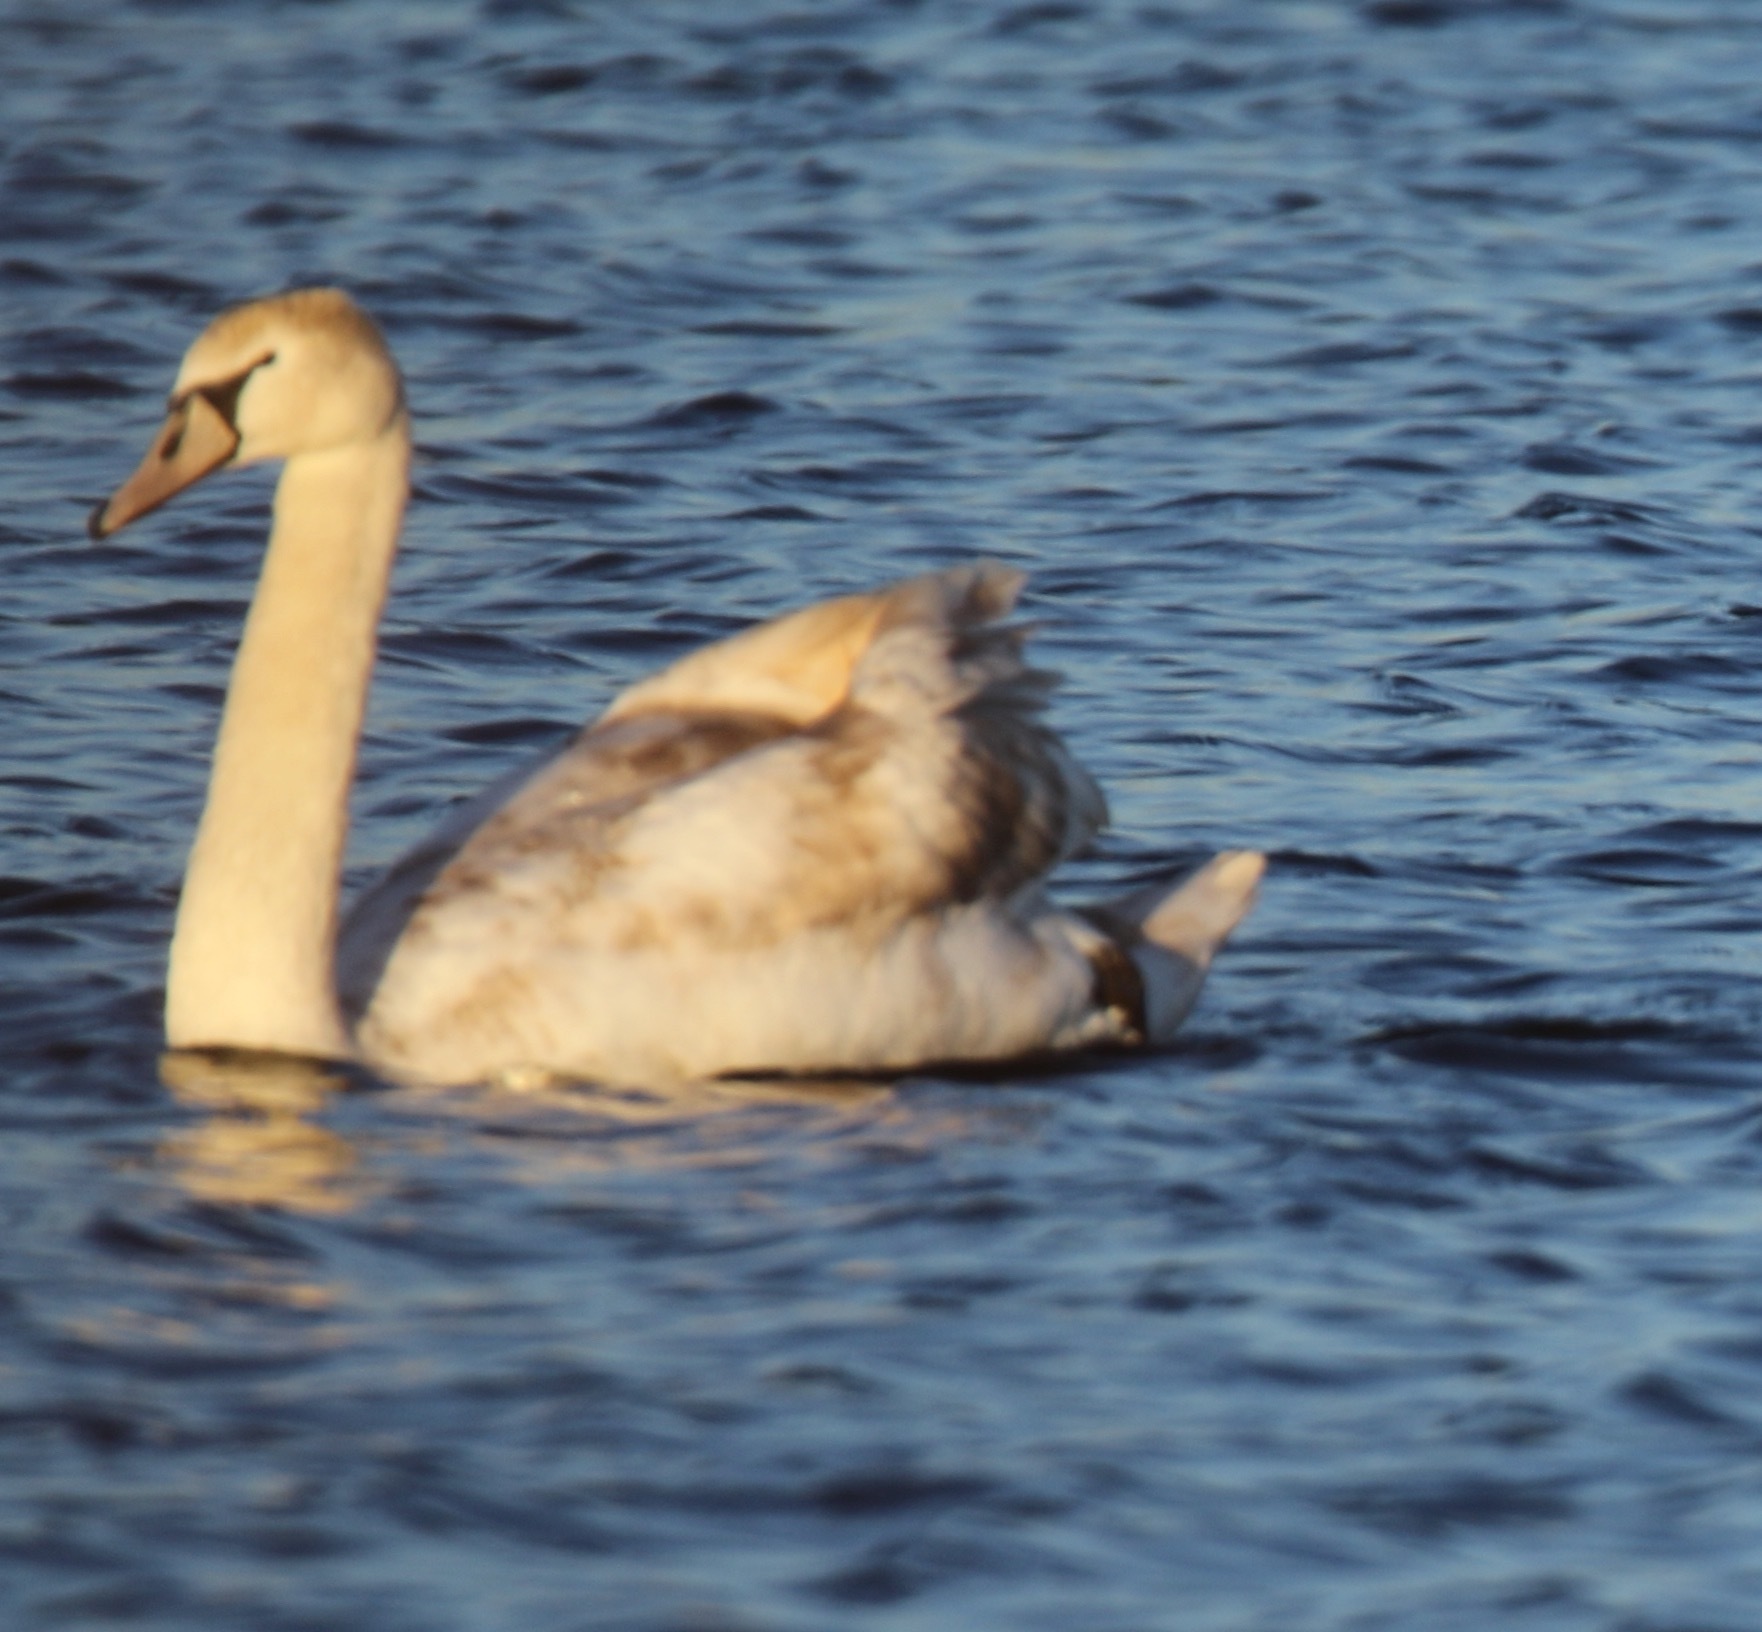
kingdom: Animalia
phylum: Chordata
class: Aves
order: Anseriformes
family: Anatidae
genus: Cygnus
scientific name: Cygnus olor
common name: Mute swan
